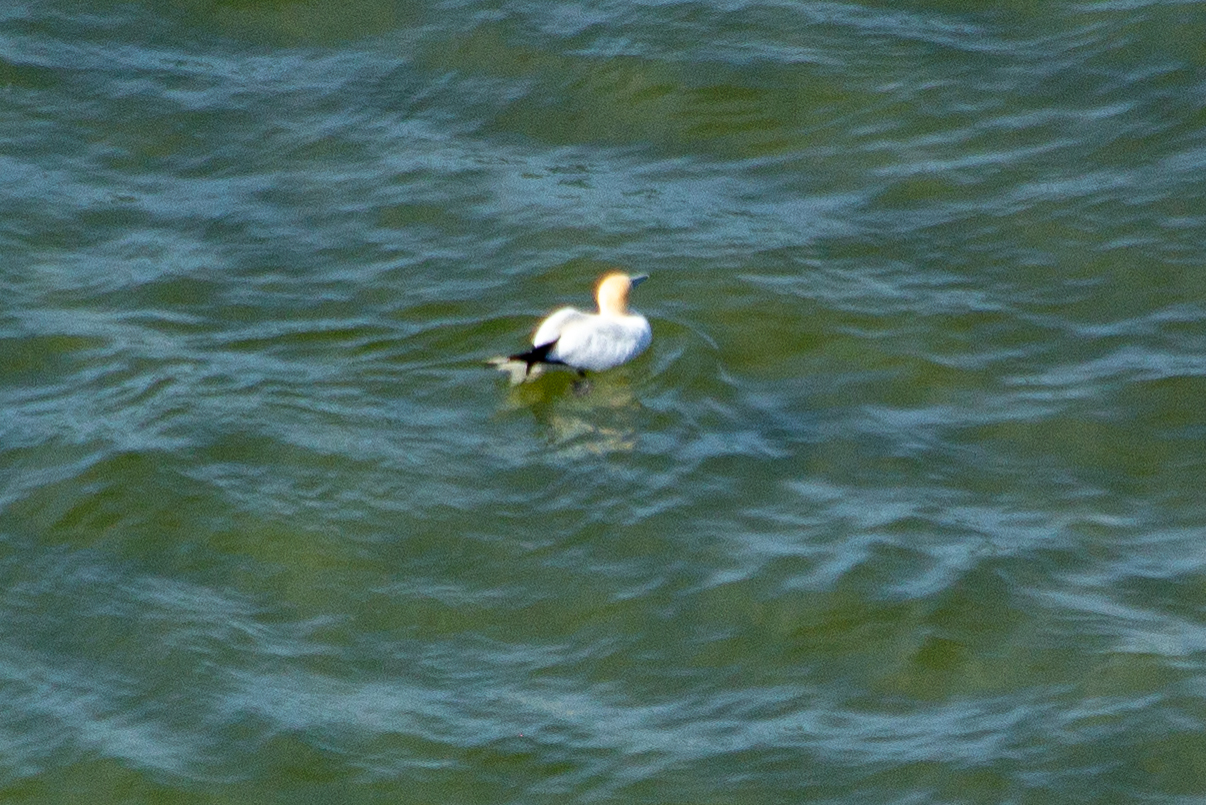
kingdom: Animalia
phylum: Chordata
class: Aves
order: Suliformes
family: Sulidae
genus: Morus
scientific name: Morus bassanus
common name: Northern gannet
